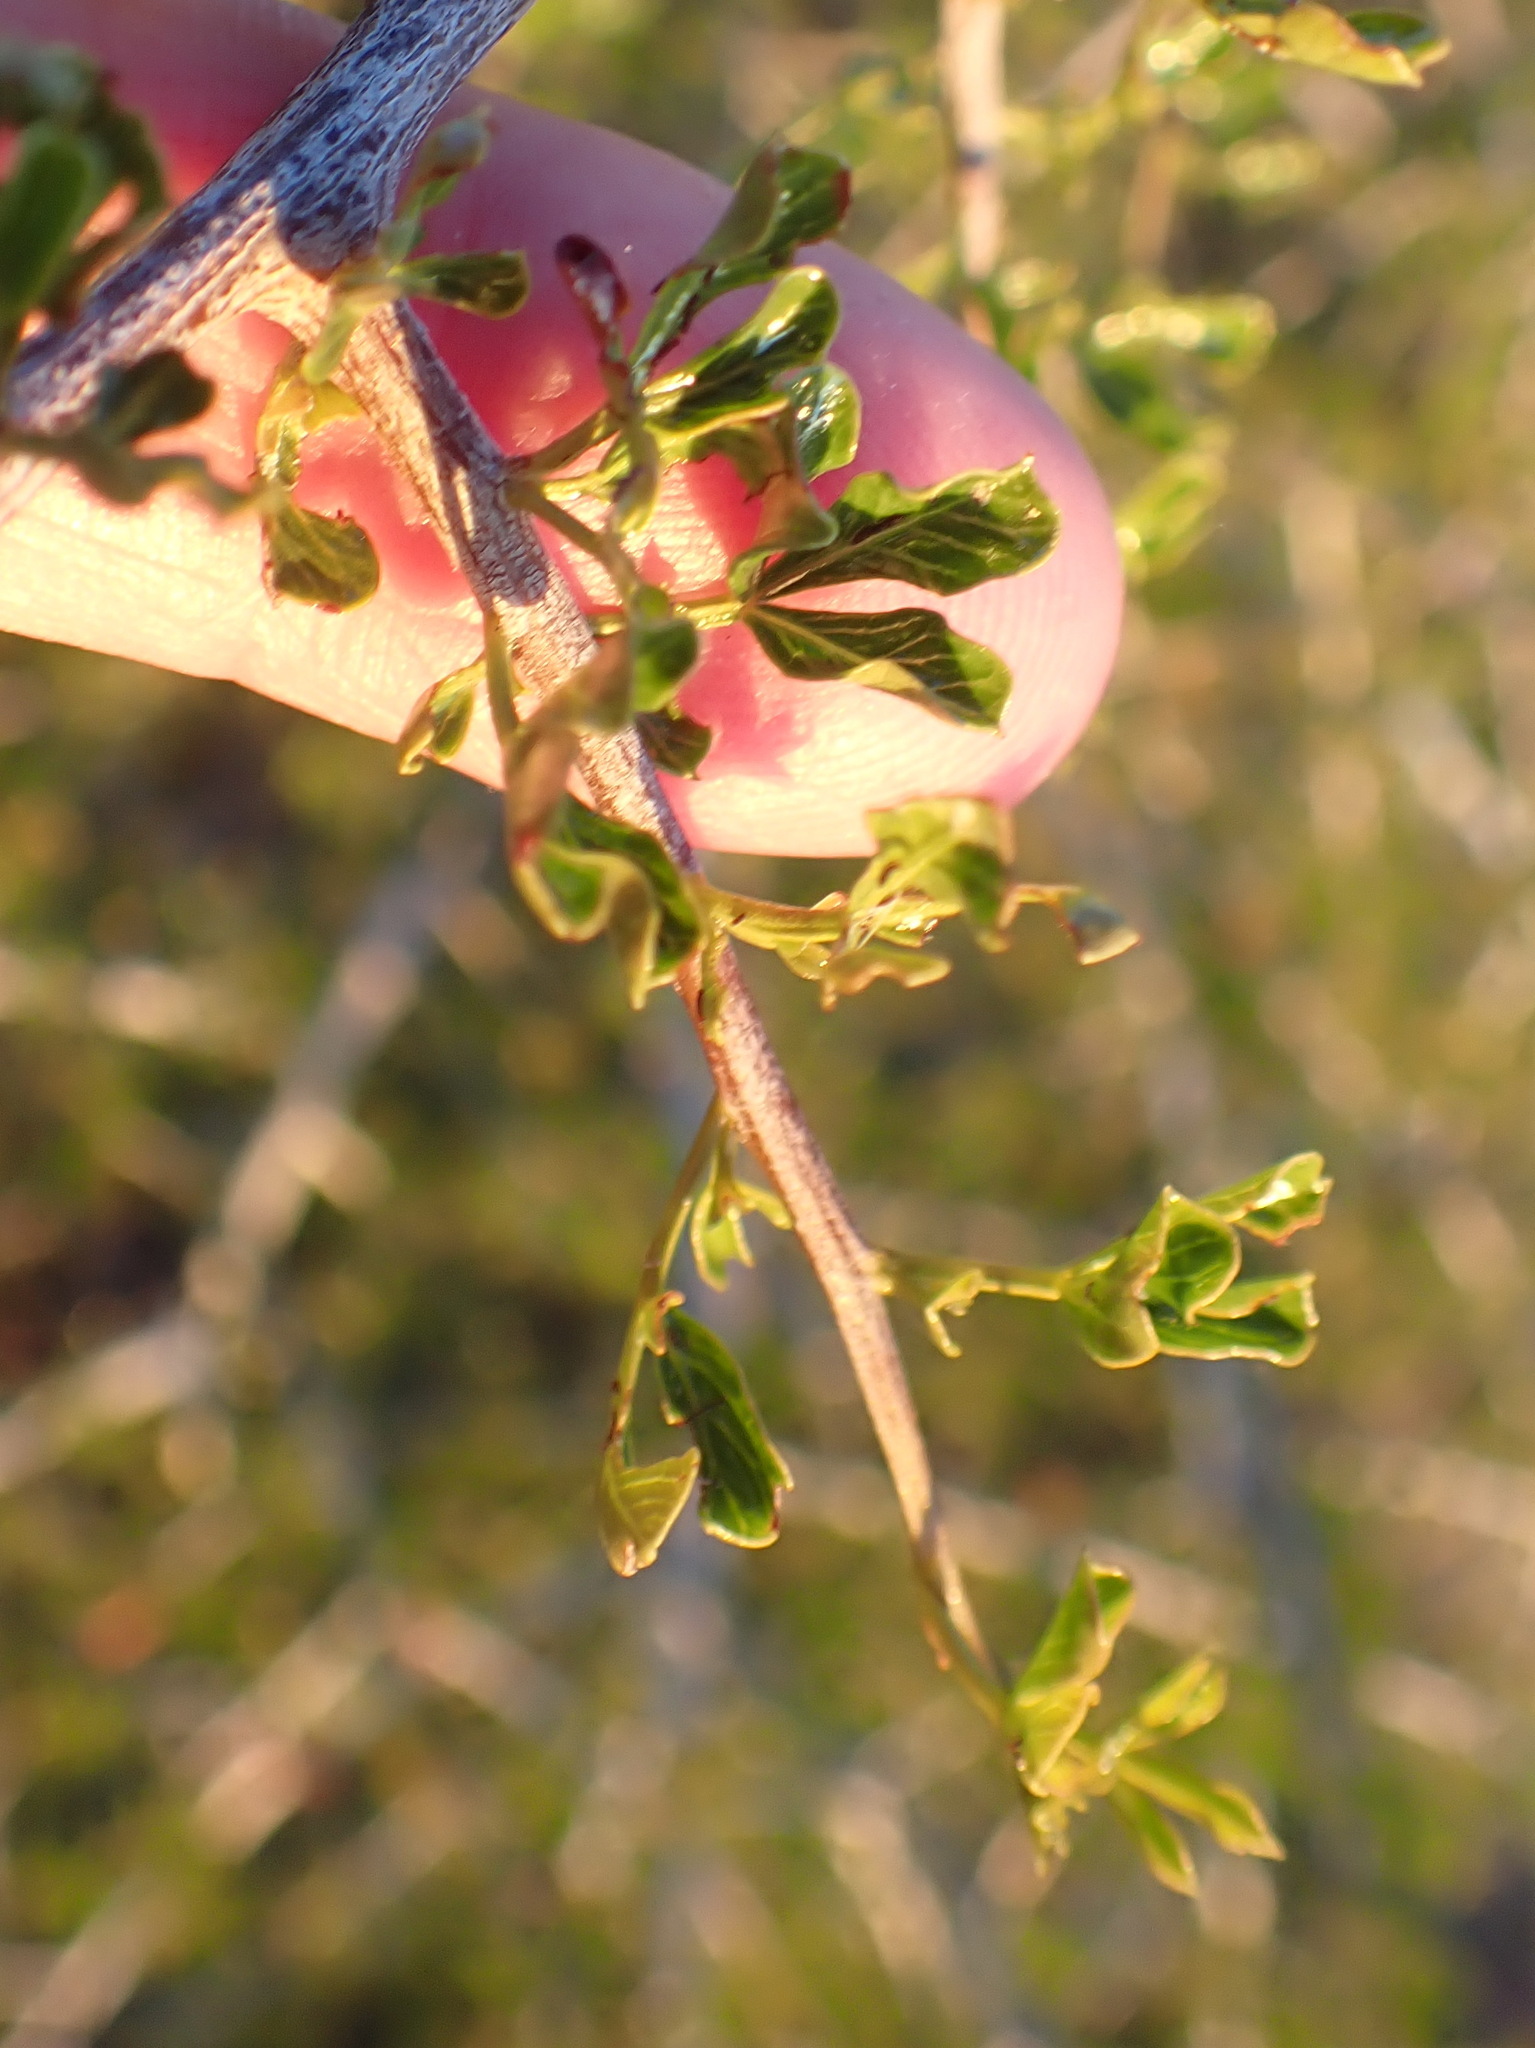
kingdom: Plantae
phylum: Tracheophyta
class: Magnoliopsida
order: Sapindales
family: Anacardiaceae
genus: Searsia
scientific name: Searsia burchellii
